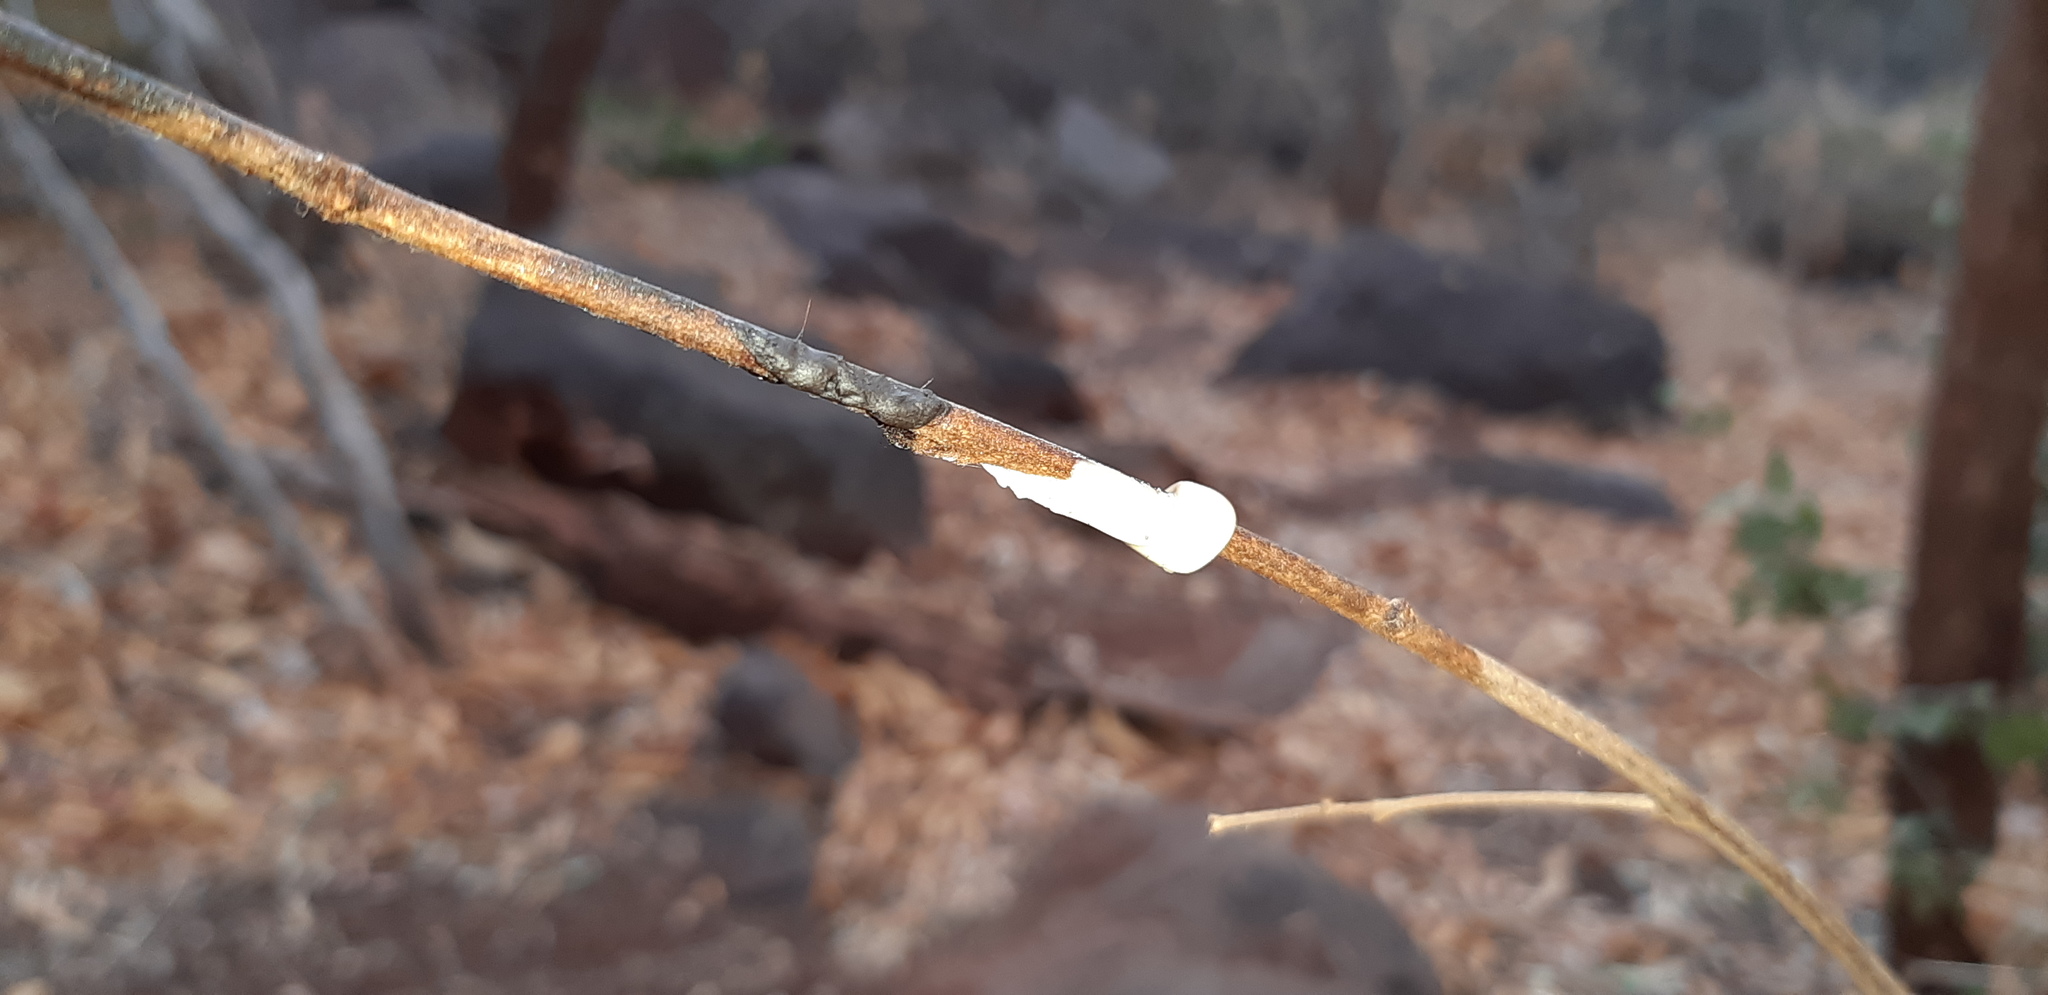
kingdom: Animalia
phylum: Chordata
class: Mammalia
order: Carnivora
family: Hyaenidae
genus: Hyaena
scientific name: Hyaena brunnea
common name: Brown hyena
